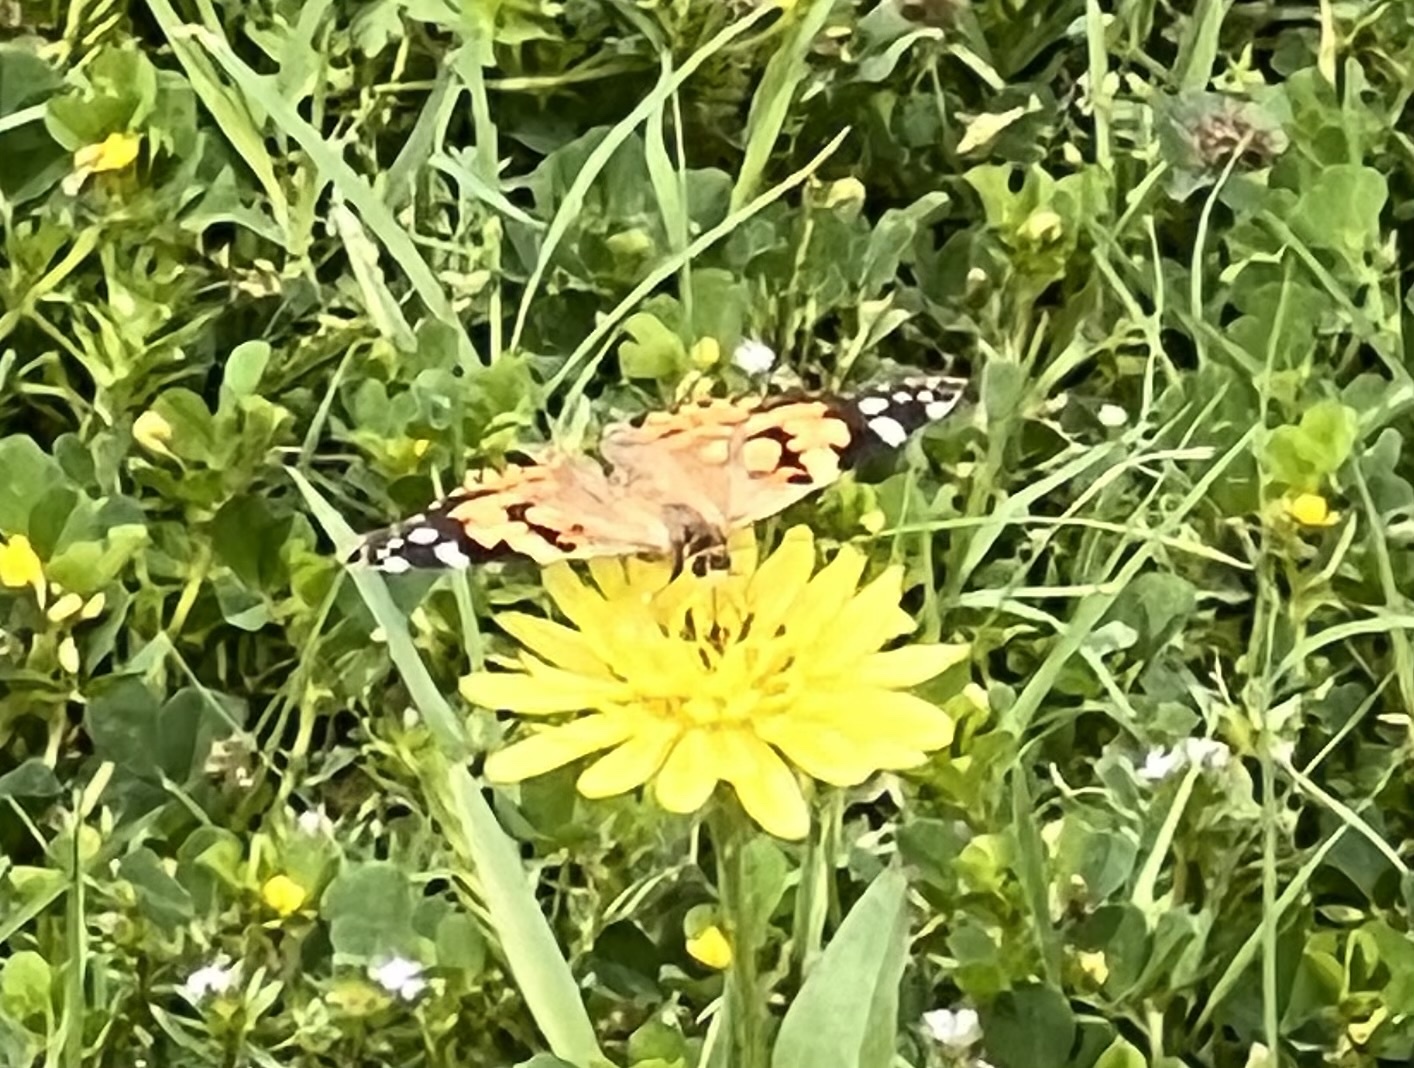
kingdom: Animalia
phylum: Arthropoda
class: Insecta
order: Lepidoptera
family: Nymphalidae
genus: Vanessa
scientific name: Vanessa cardui
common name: Painted lady
